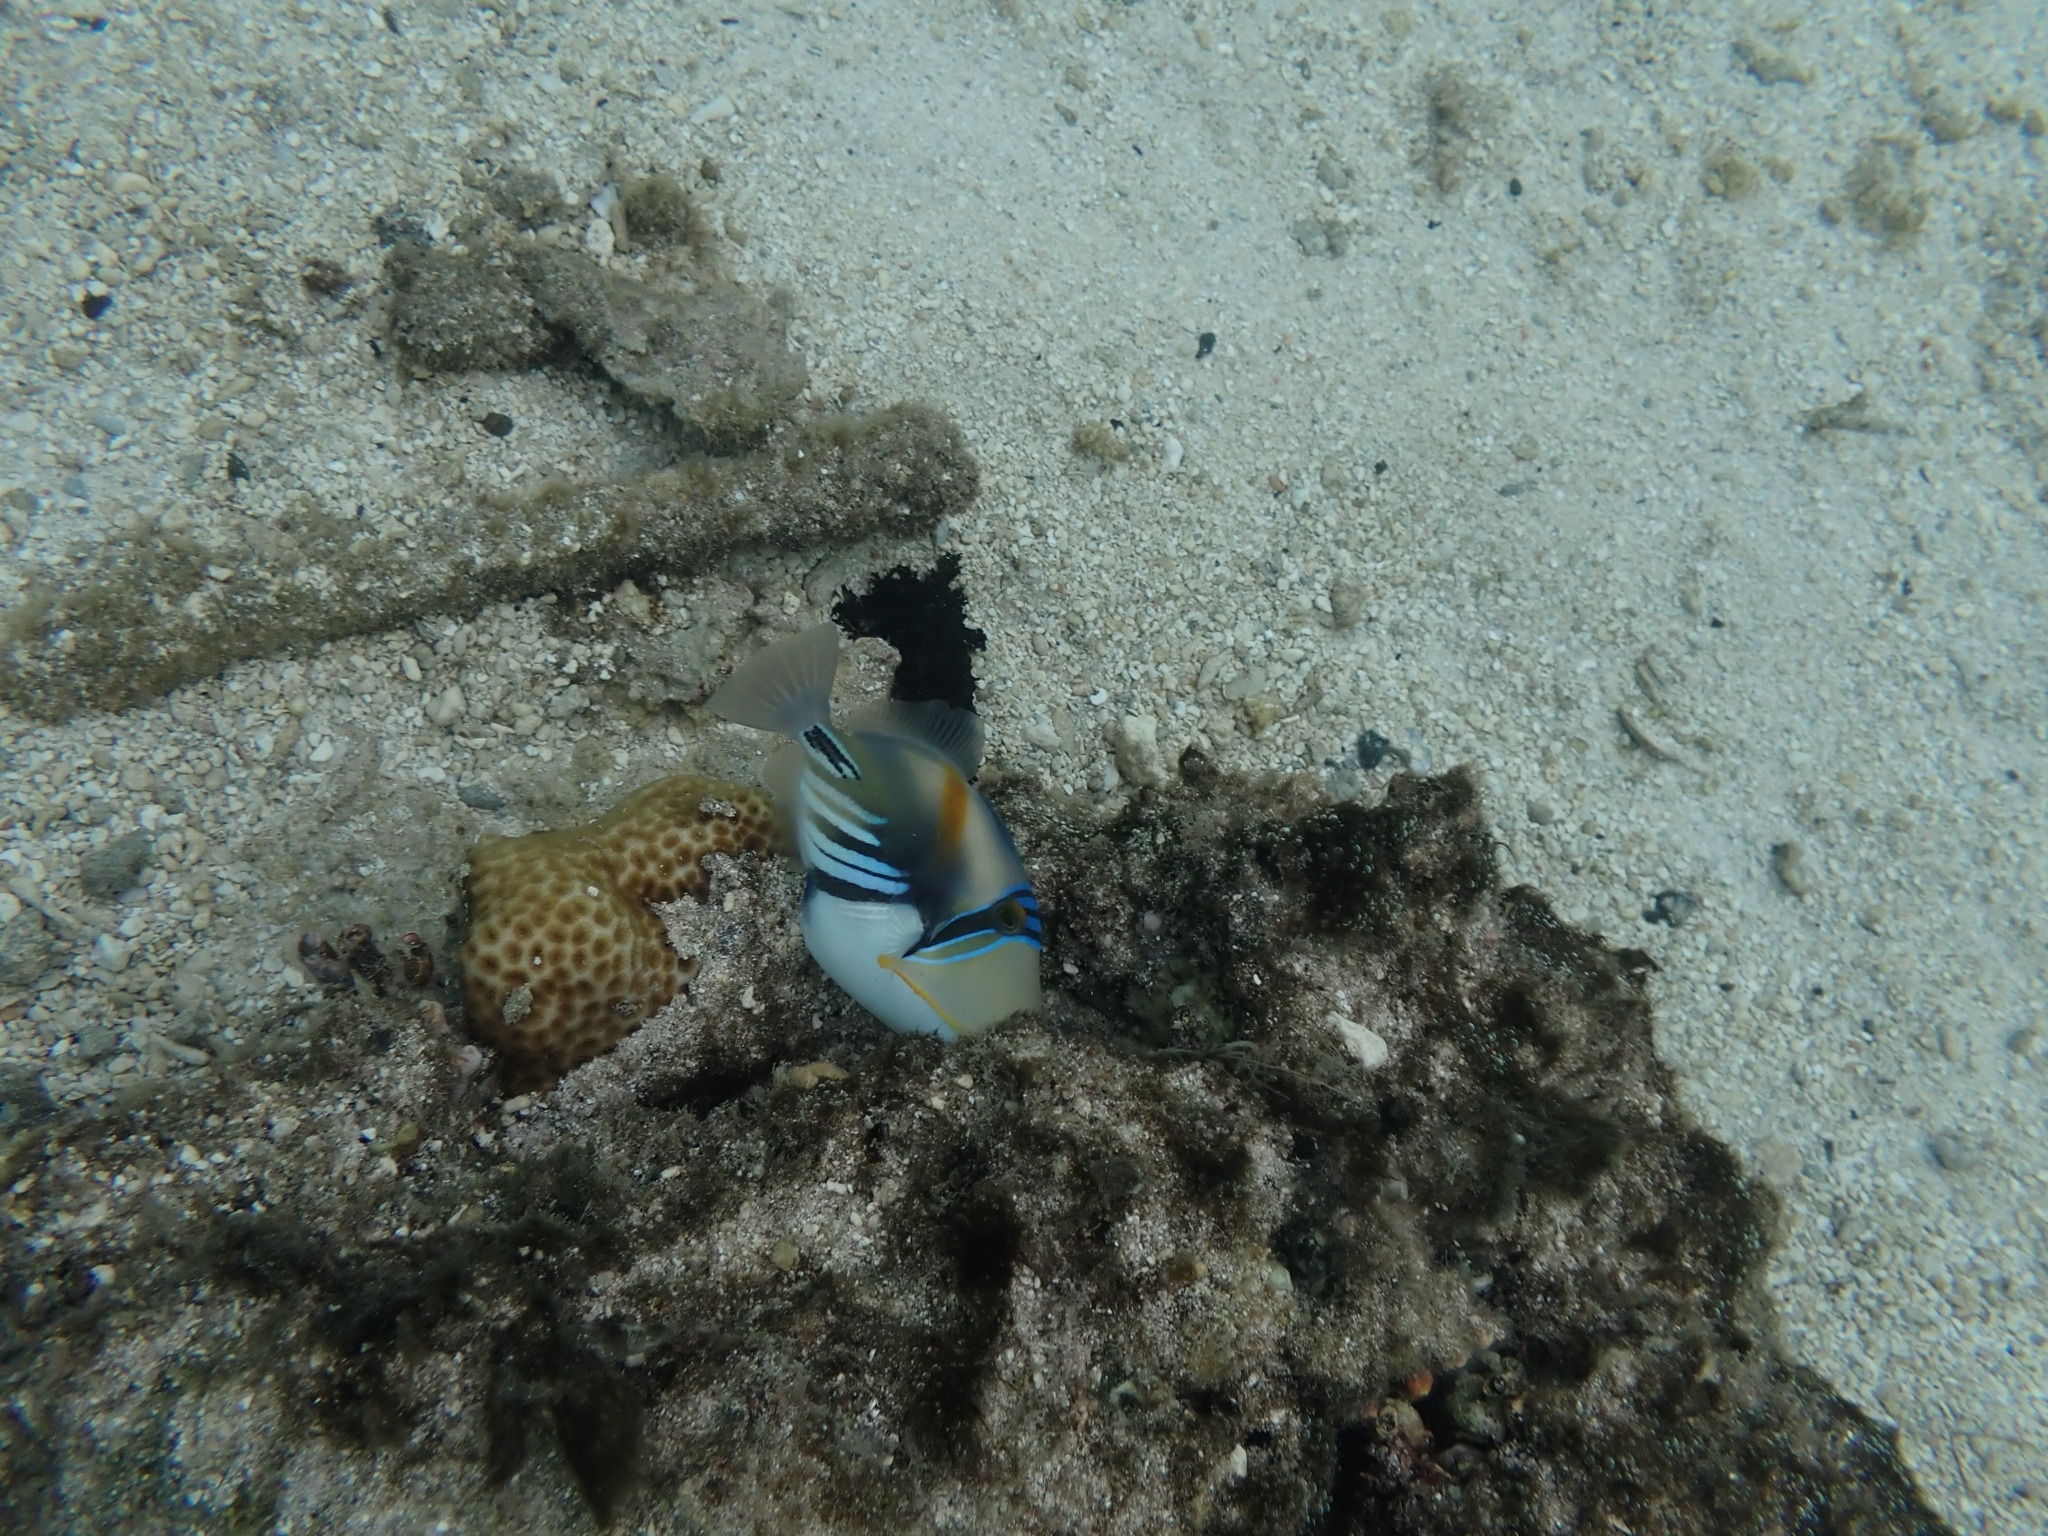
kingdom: Animalia
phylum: Chordata
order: Tetraodontiformes
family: Balistidae
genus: Rhinecanthus
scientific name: Rhinecanthus aculeatus
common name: White-banded triggerfish
